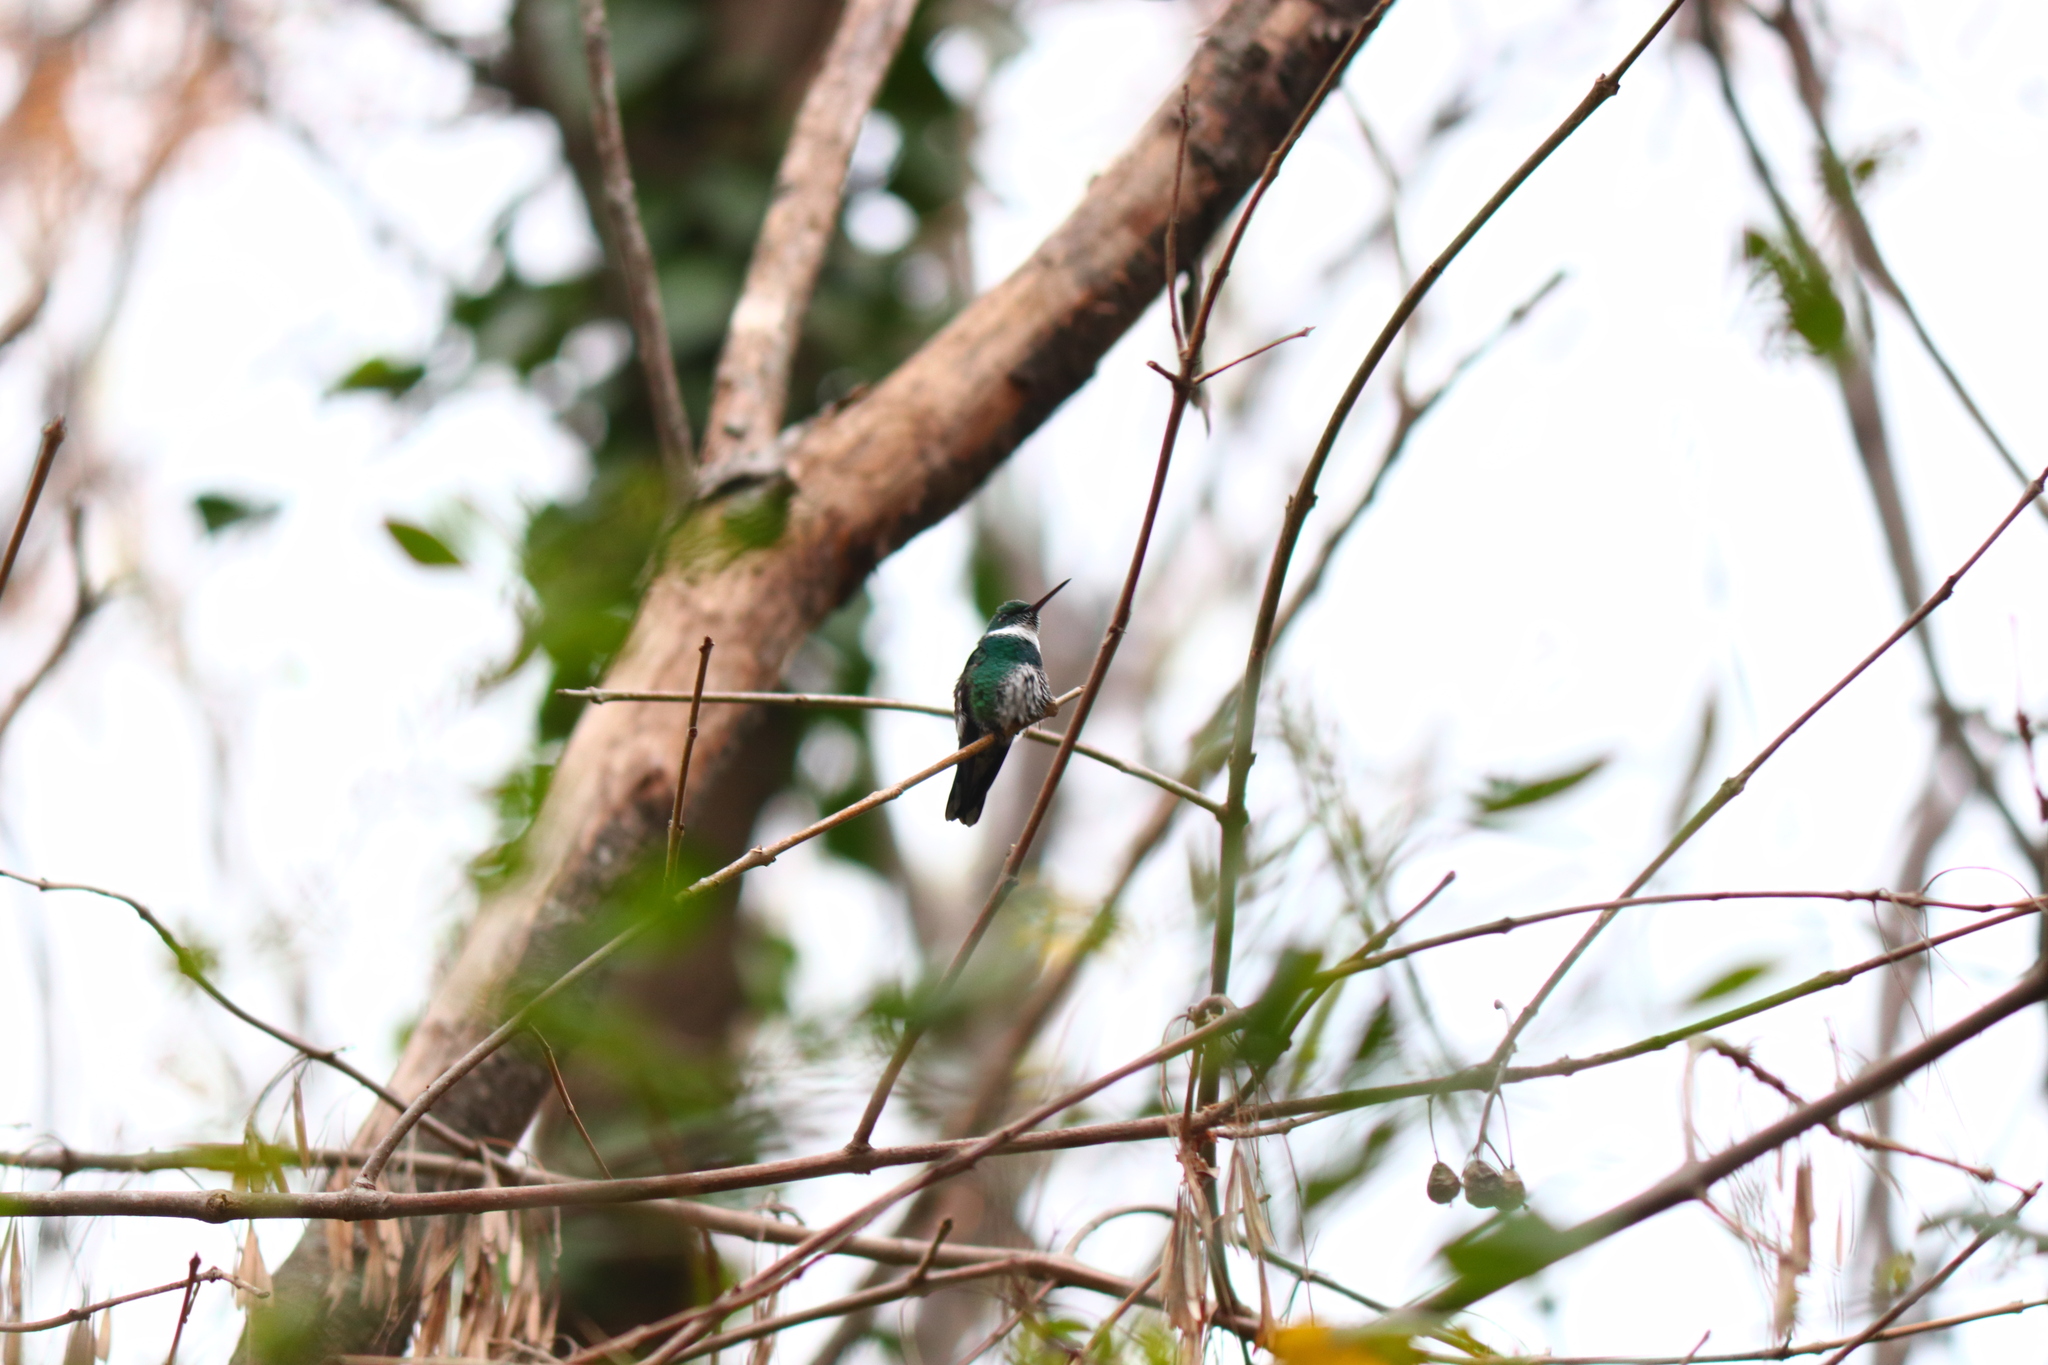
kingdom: Animalia
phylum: Chordata
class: Aves
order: Apodiformes
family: Trochilidae
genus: Leucochloris
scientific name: Leucochloris albicollis
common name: White-throated hummingbird
